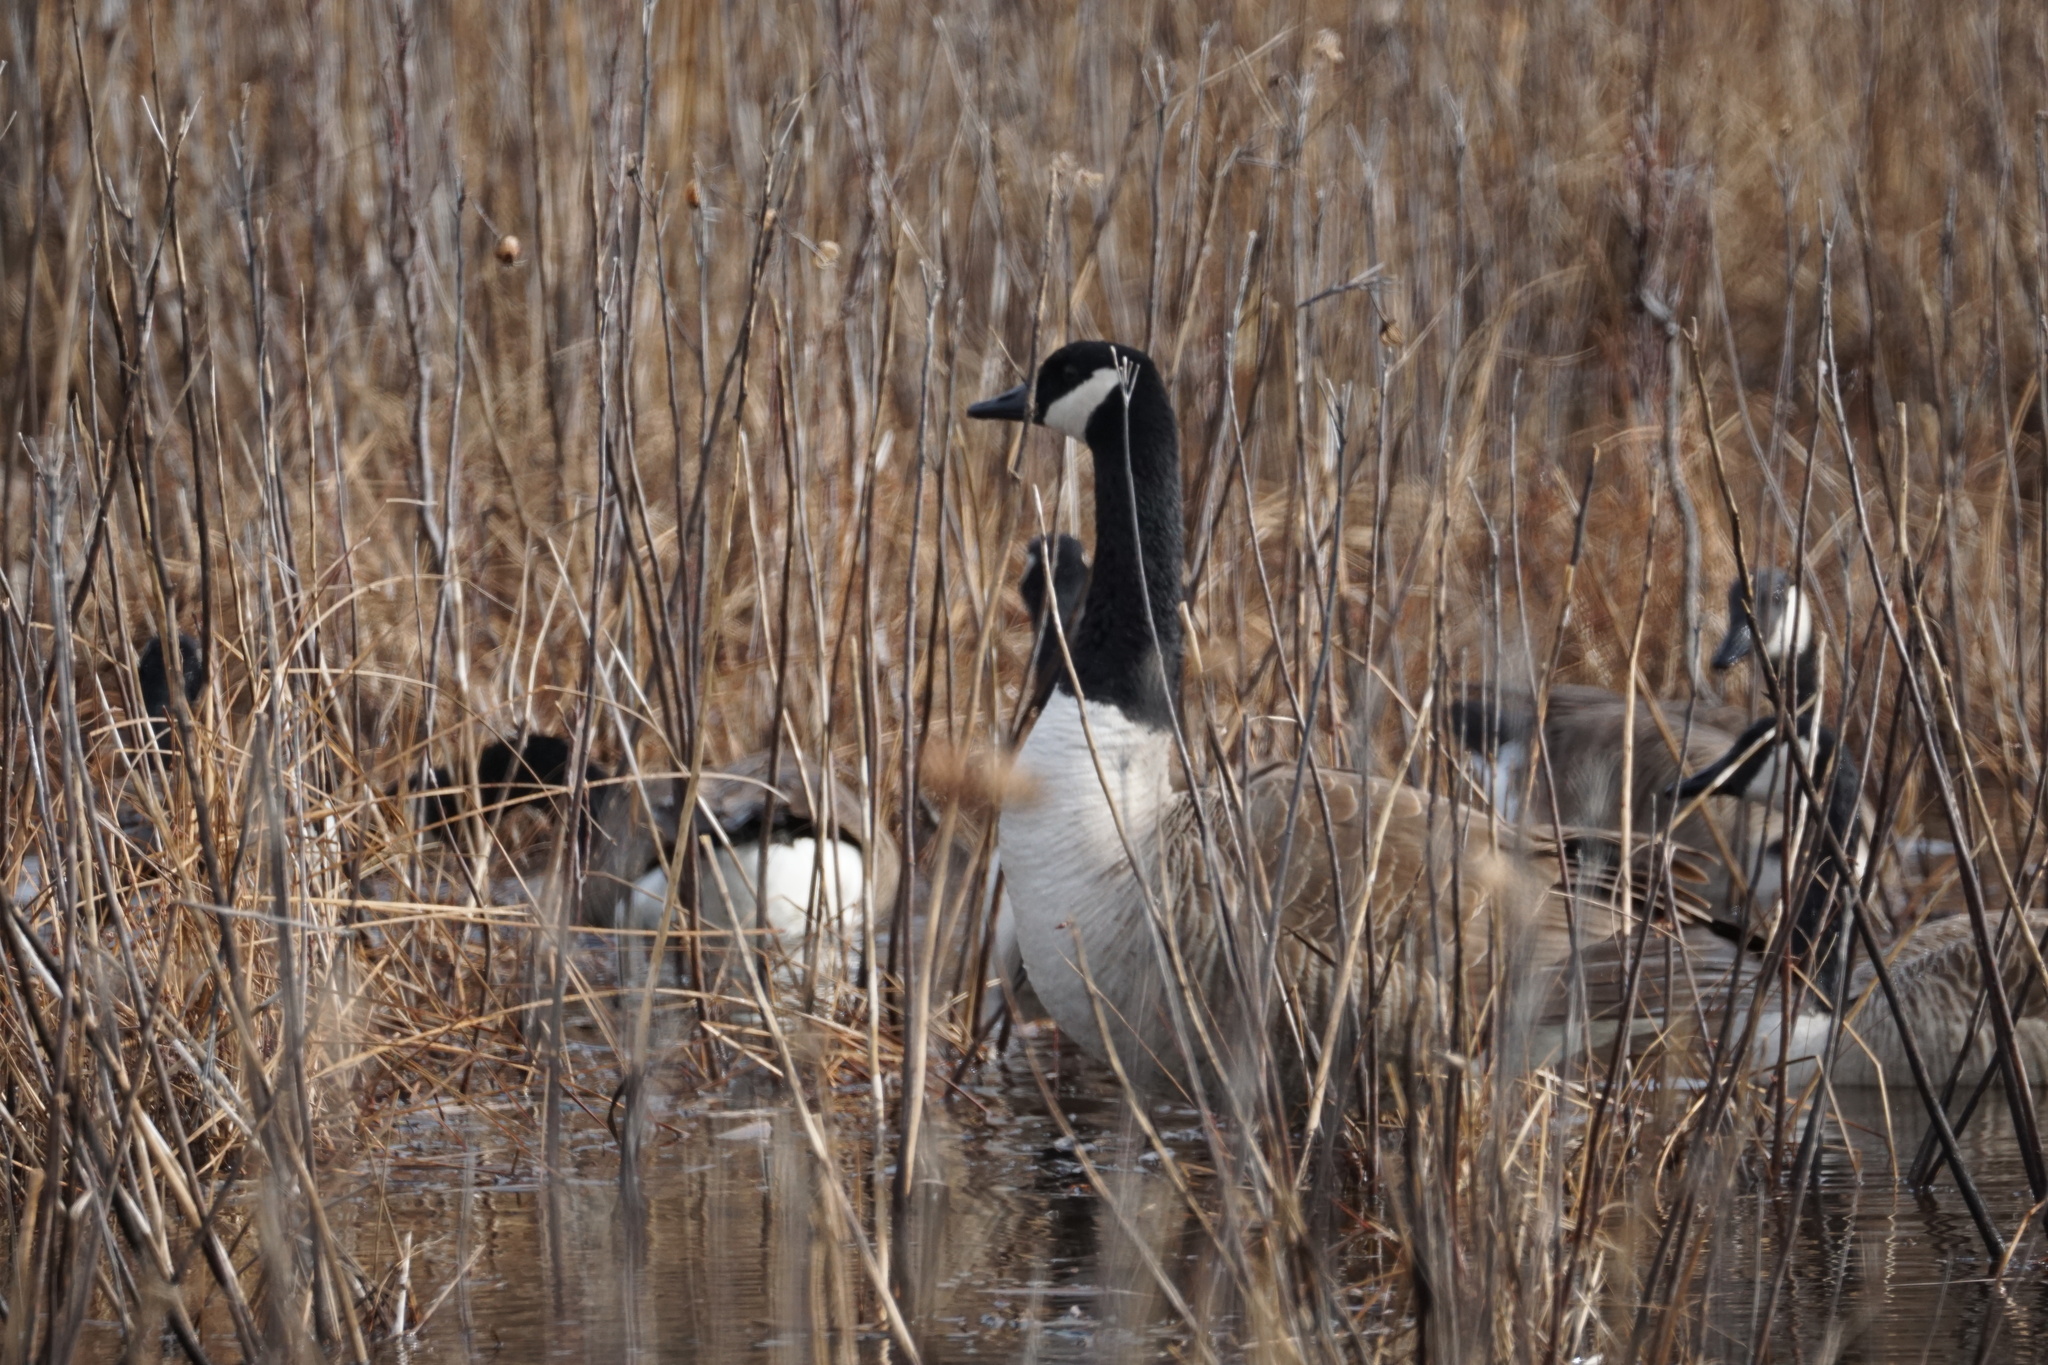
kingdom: Animalia
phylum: Chordata
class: Aves
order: Anseriformes
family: Anatidae
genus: Branta
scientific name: Branta canadensis
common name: Canada goose
